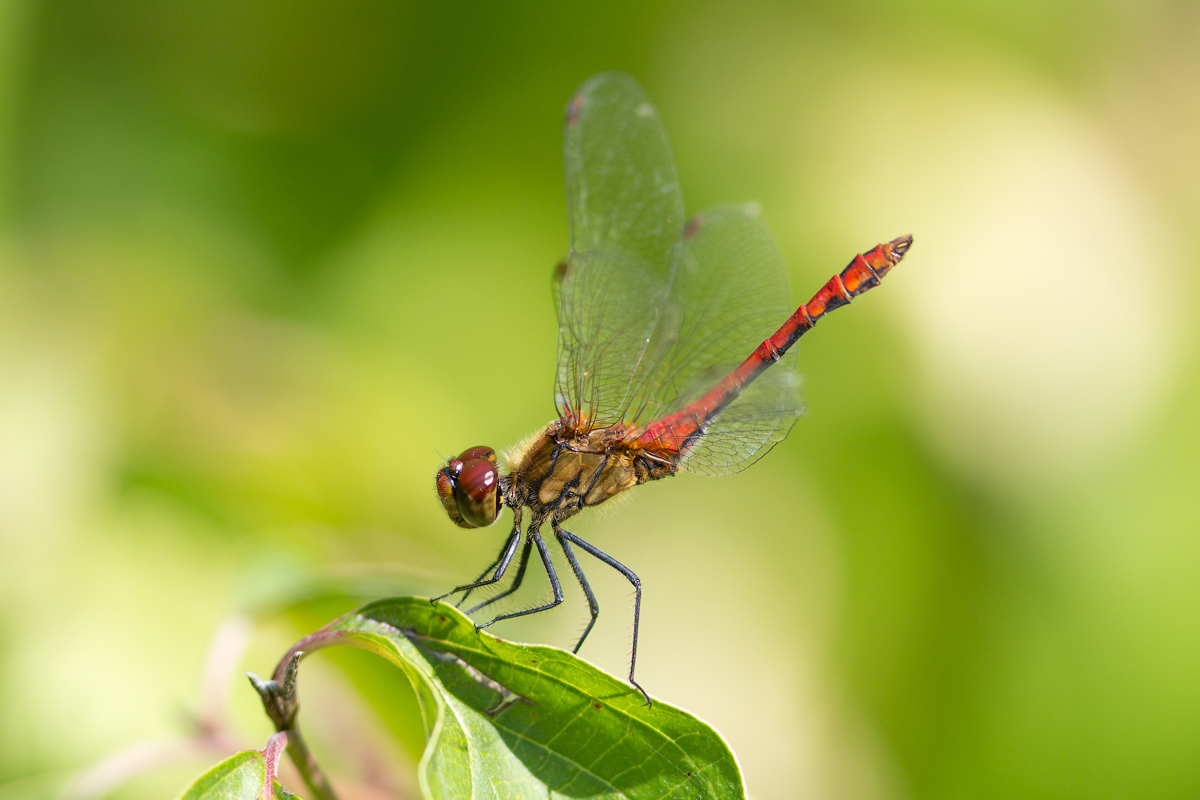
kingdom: Animalia
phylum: Arthropoda
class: Insecta
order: Odonata
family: Libellulidae
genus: Sympetrum
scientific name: Sympetrum sanguineum
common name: Ruddy darter
